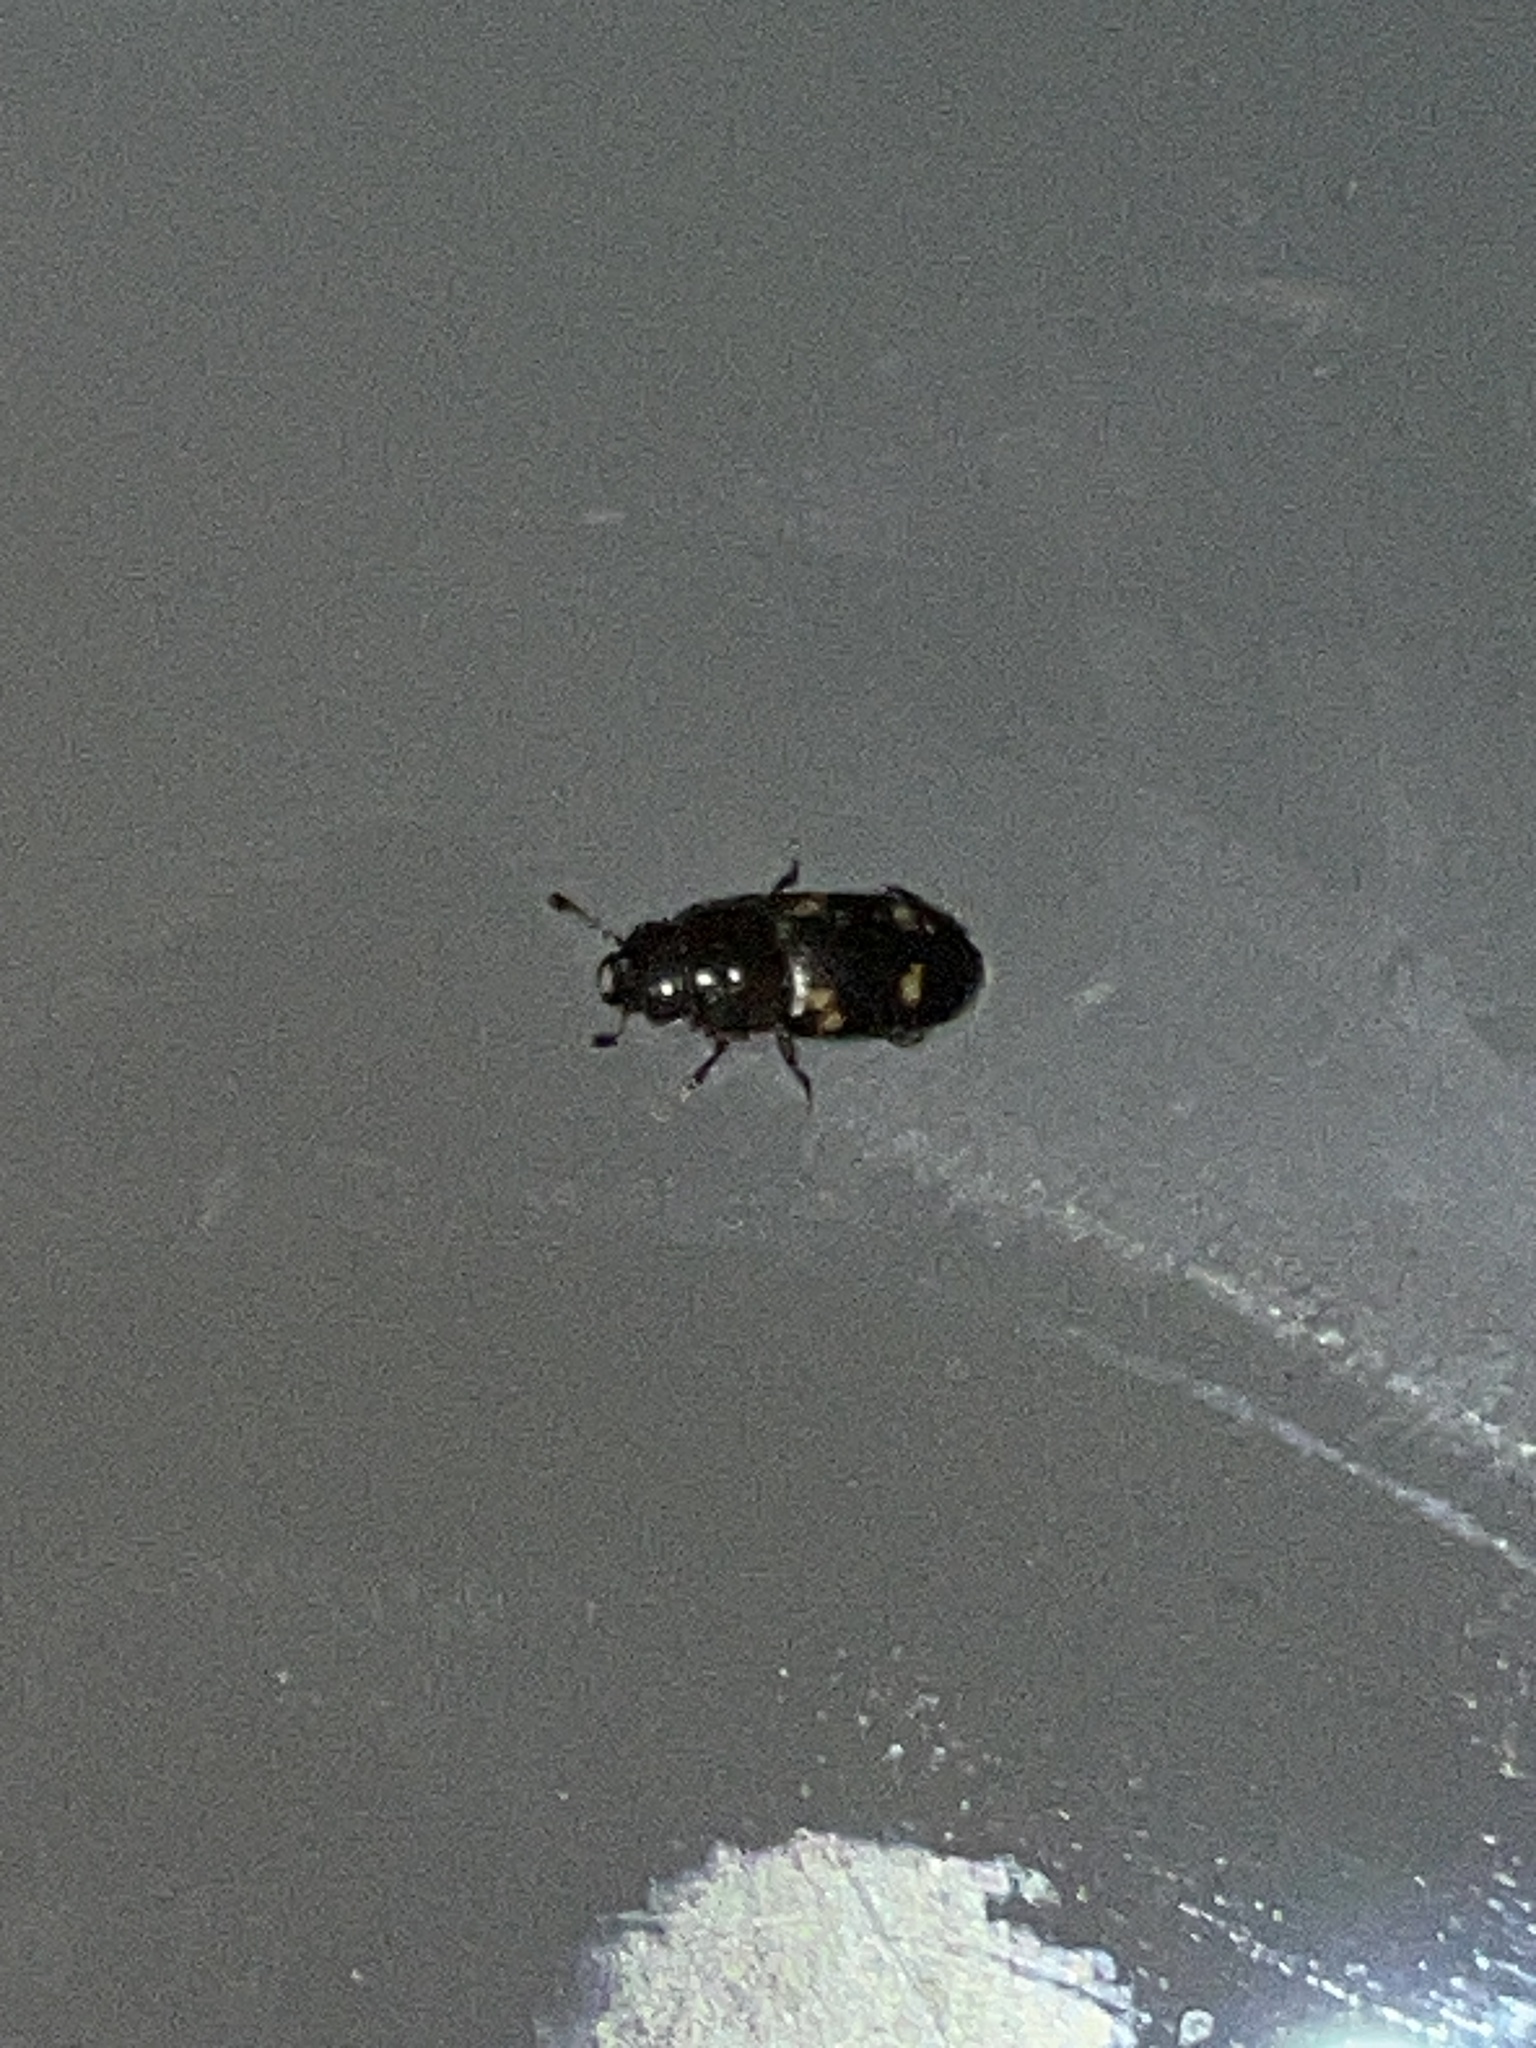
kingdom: Animalia
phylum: Arthropoda
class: Insecta
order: Coleoptera
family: Nitidulidae
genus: Glischrochilus
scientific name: Glischrochilus quadrisignatus
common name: Picnic beetle
